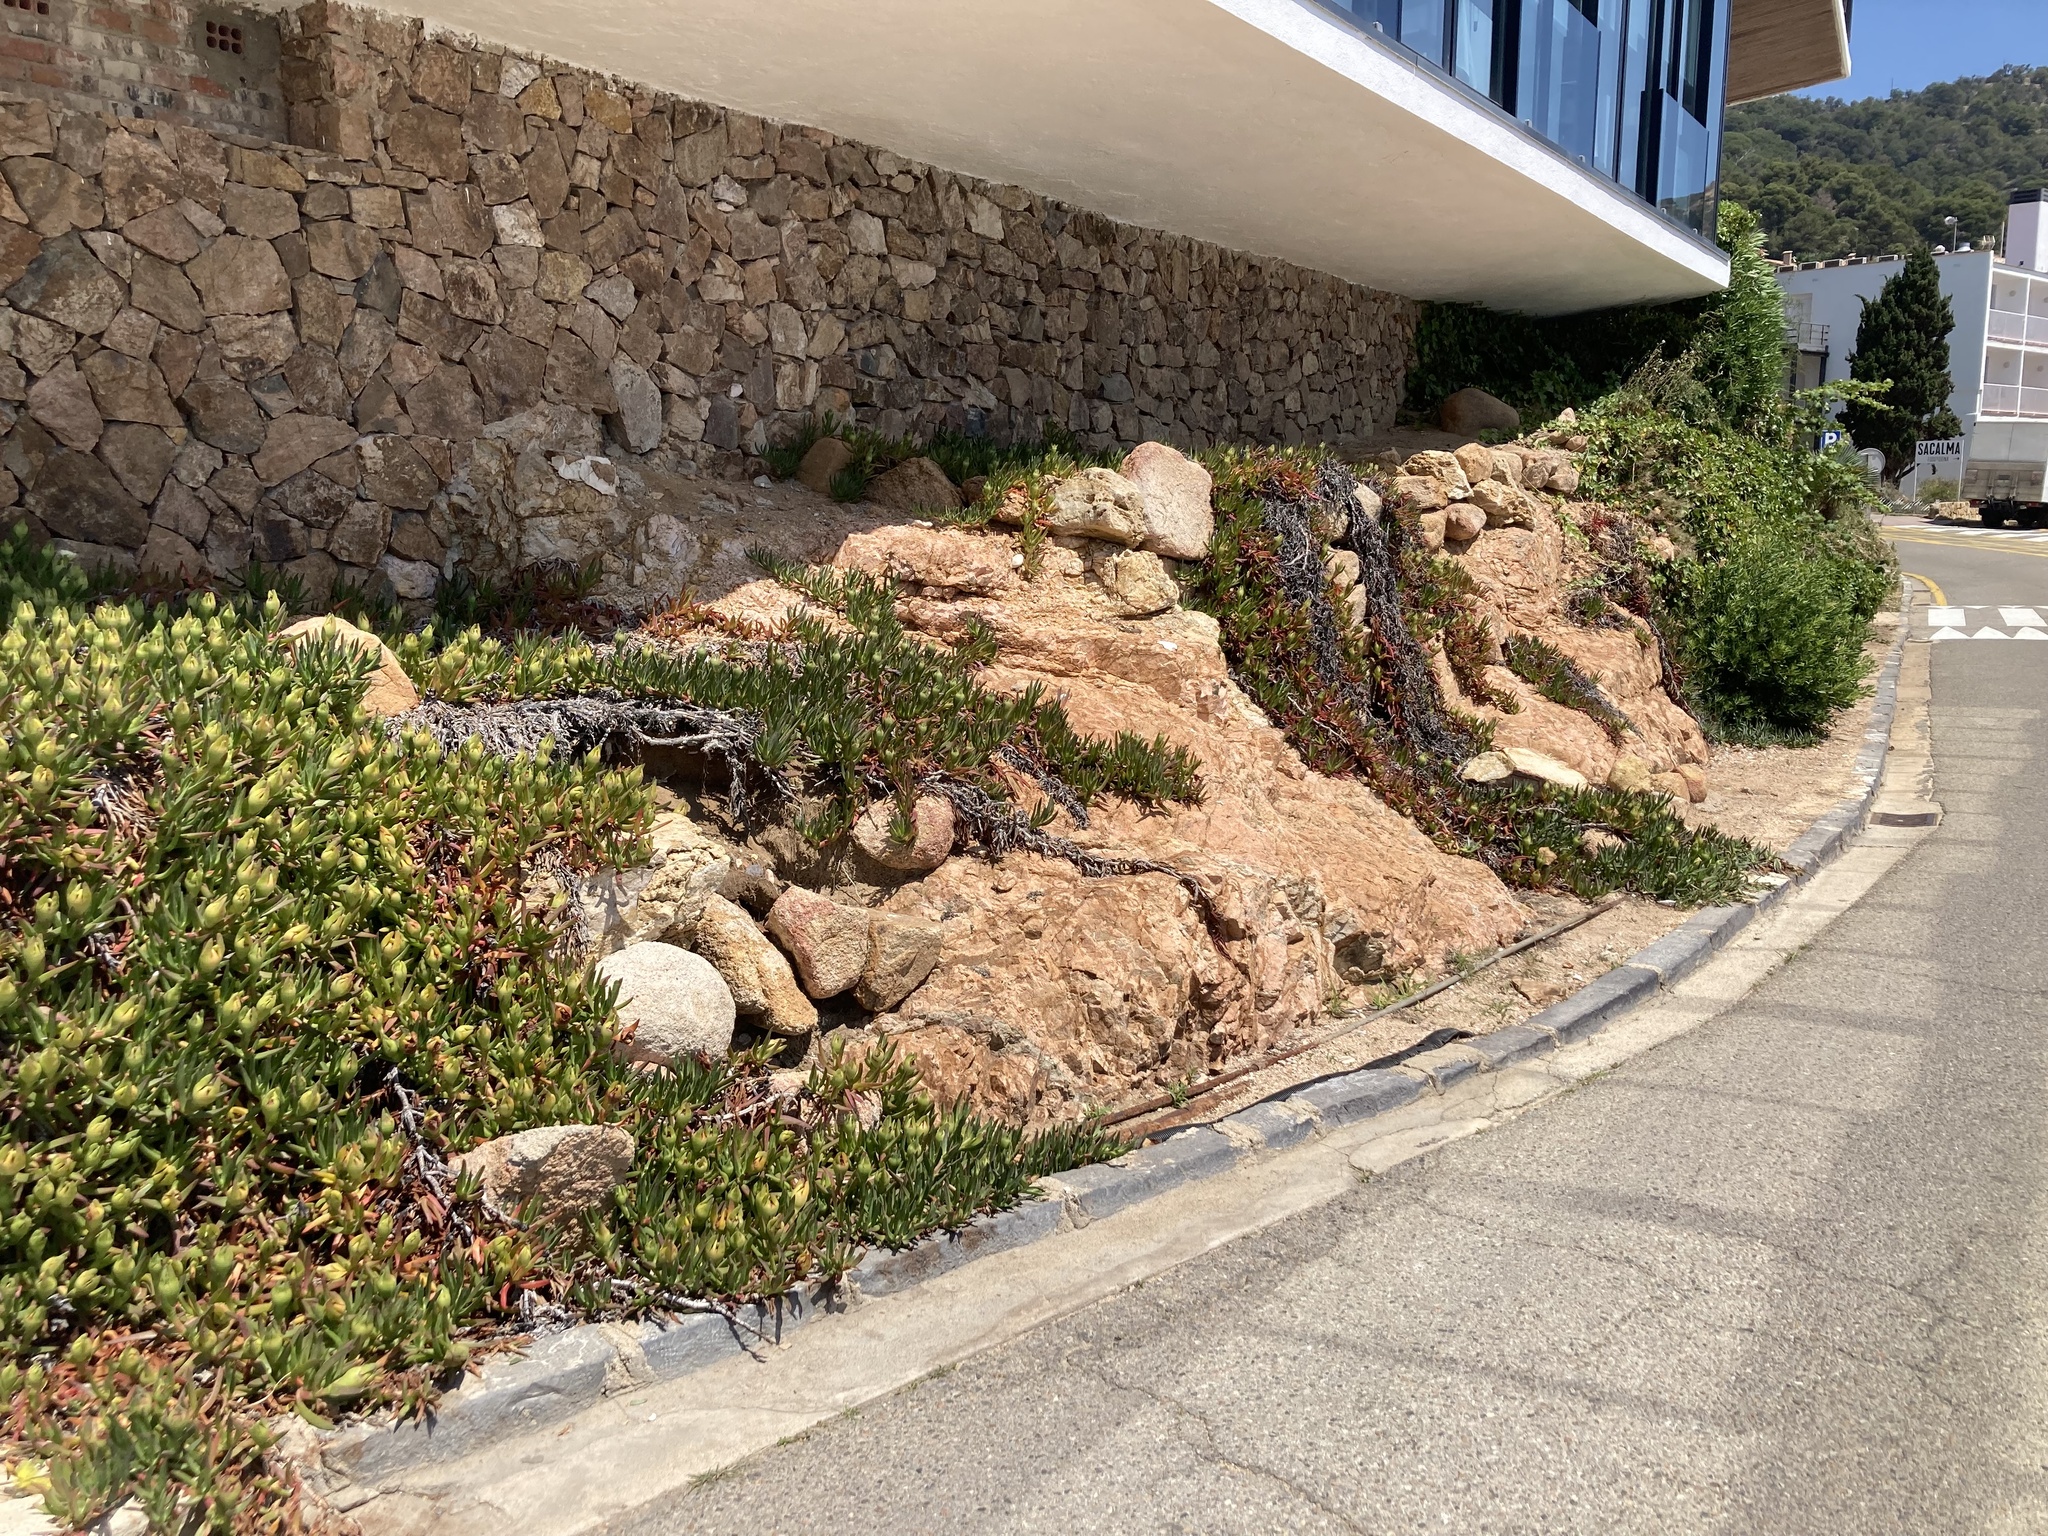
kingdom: Plantae
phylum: Tracheophyta
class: Magnoliopsida
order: Apiales
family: Pittosporaceae
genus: Pittosporum
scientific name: Pittosporum tobira
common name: Japanese cheesewood
